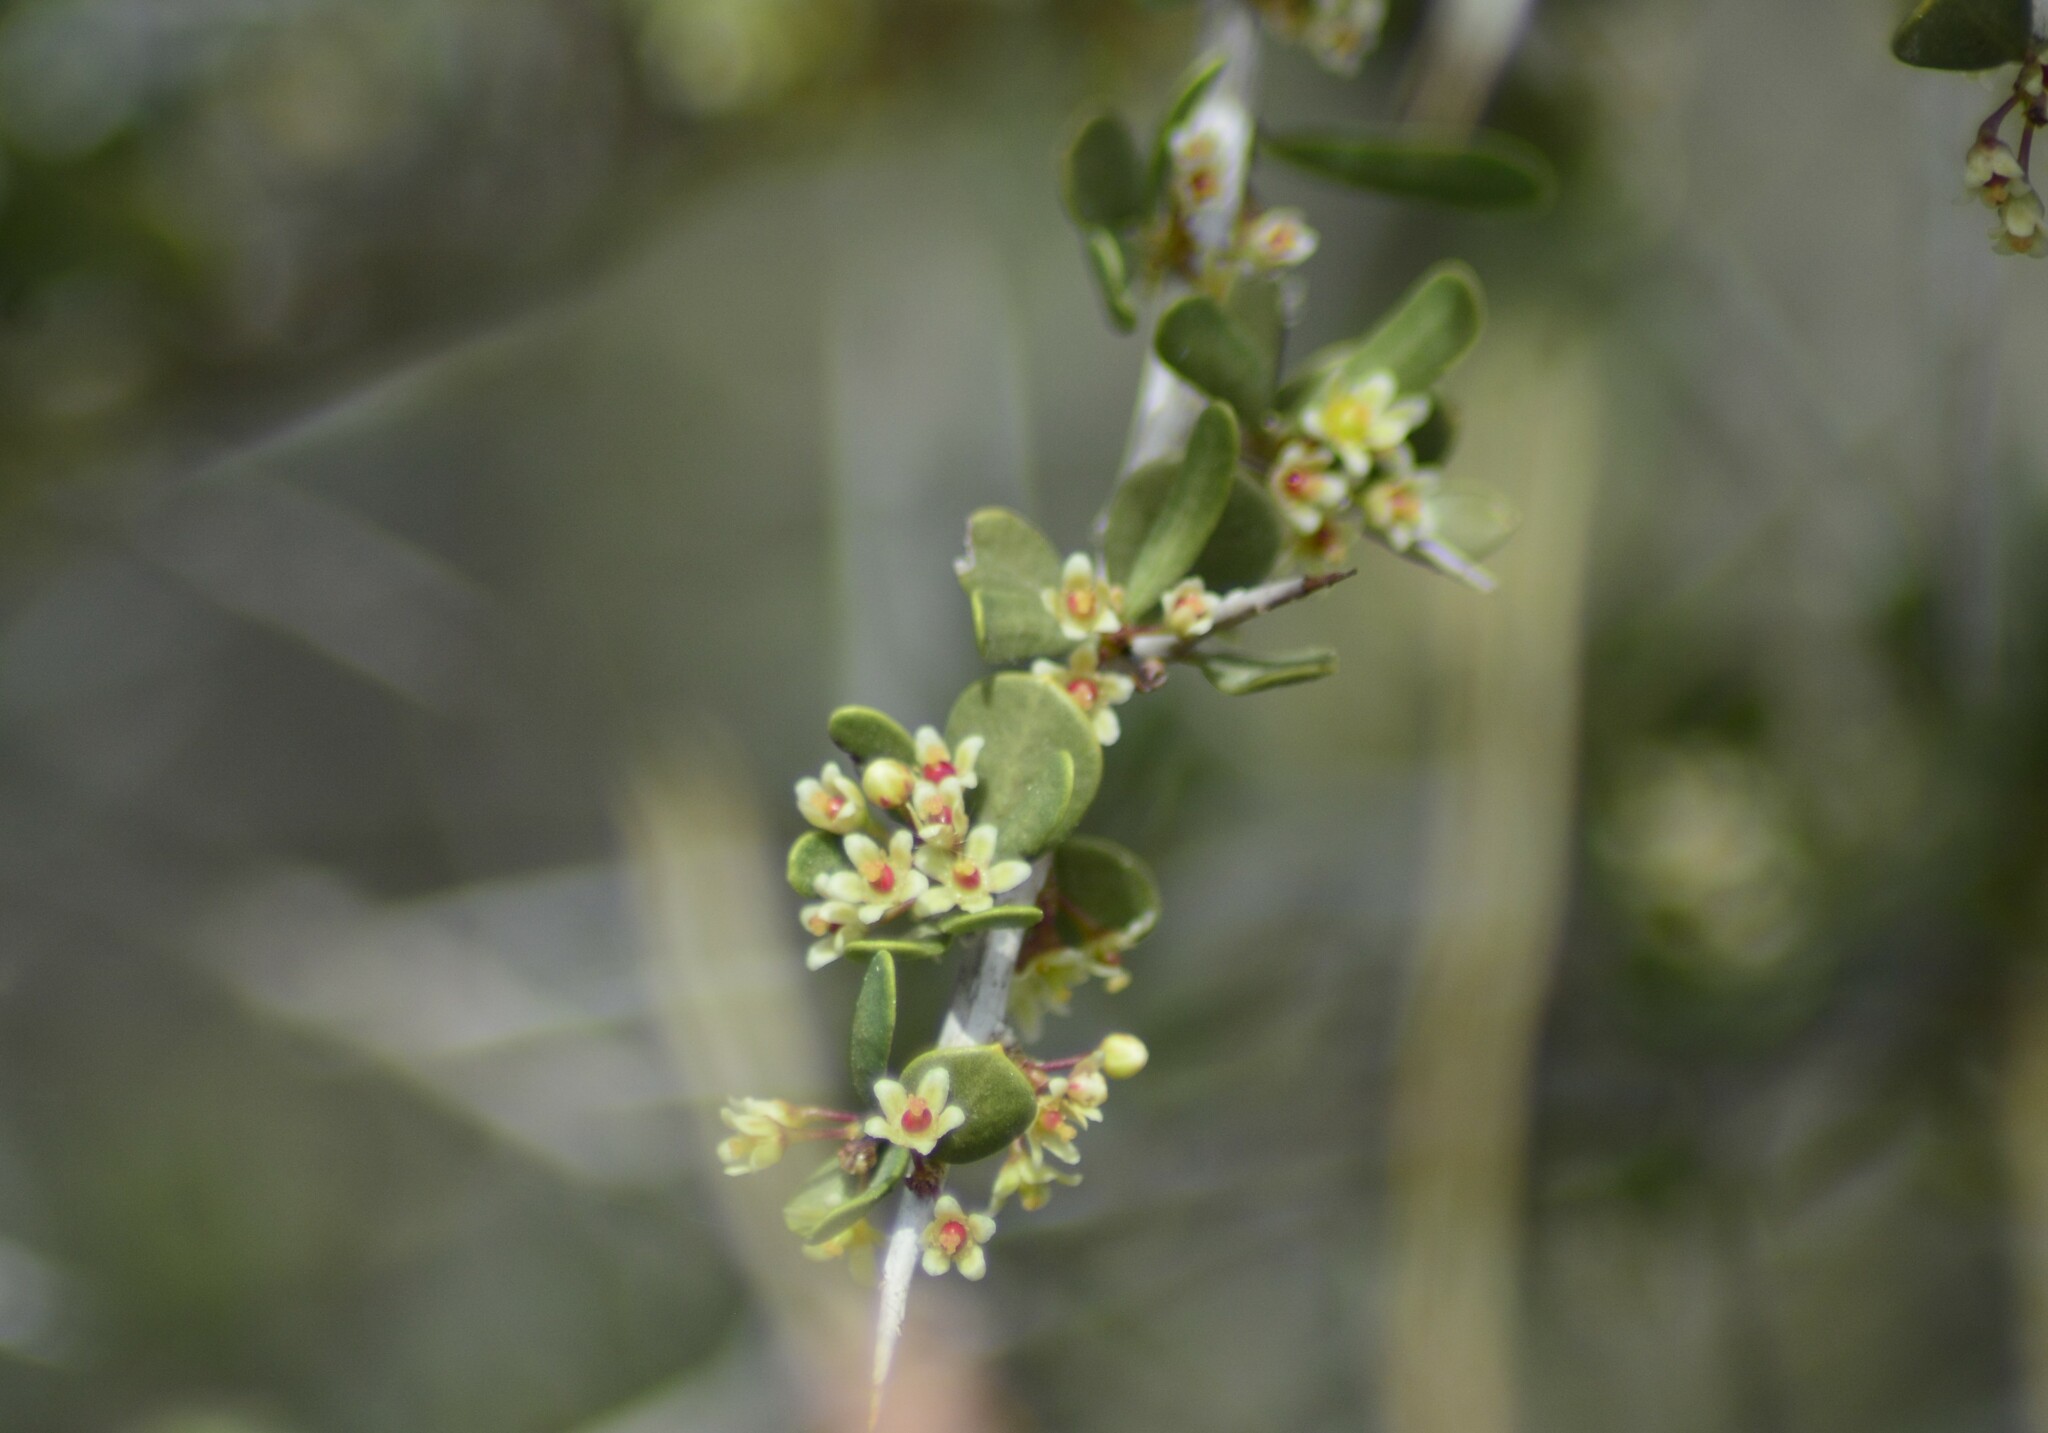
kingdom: Plantae
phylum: Tracheophyta
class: Magnoliopsida
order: Sapindales
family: Anacardiaceae
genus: Schinus
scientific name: Schinus johnstonii
